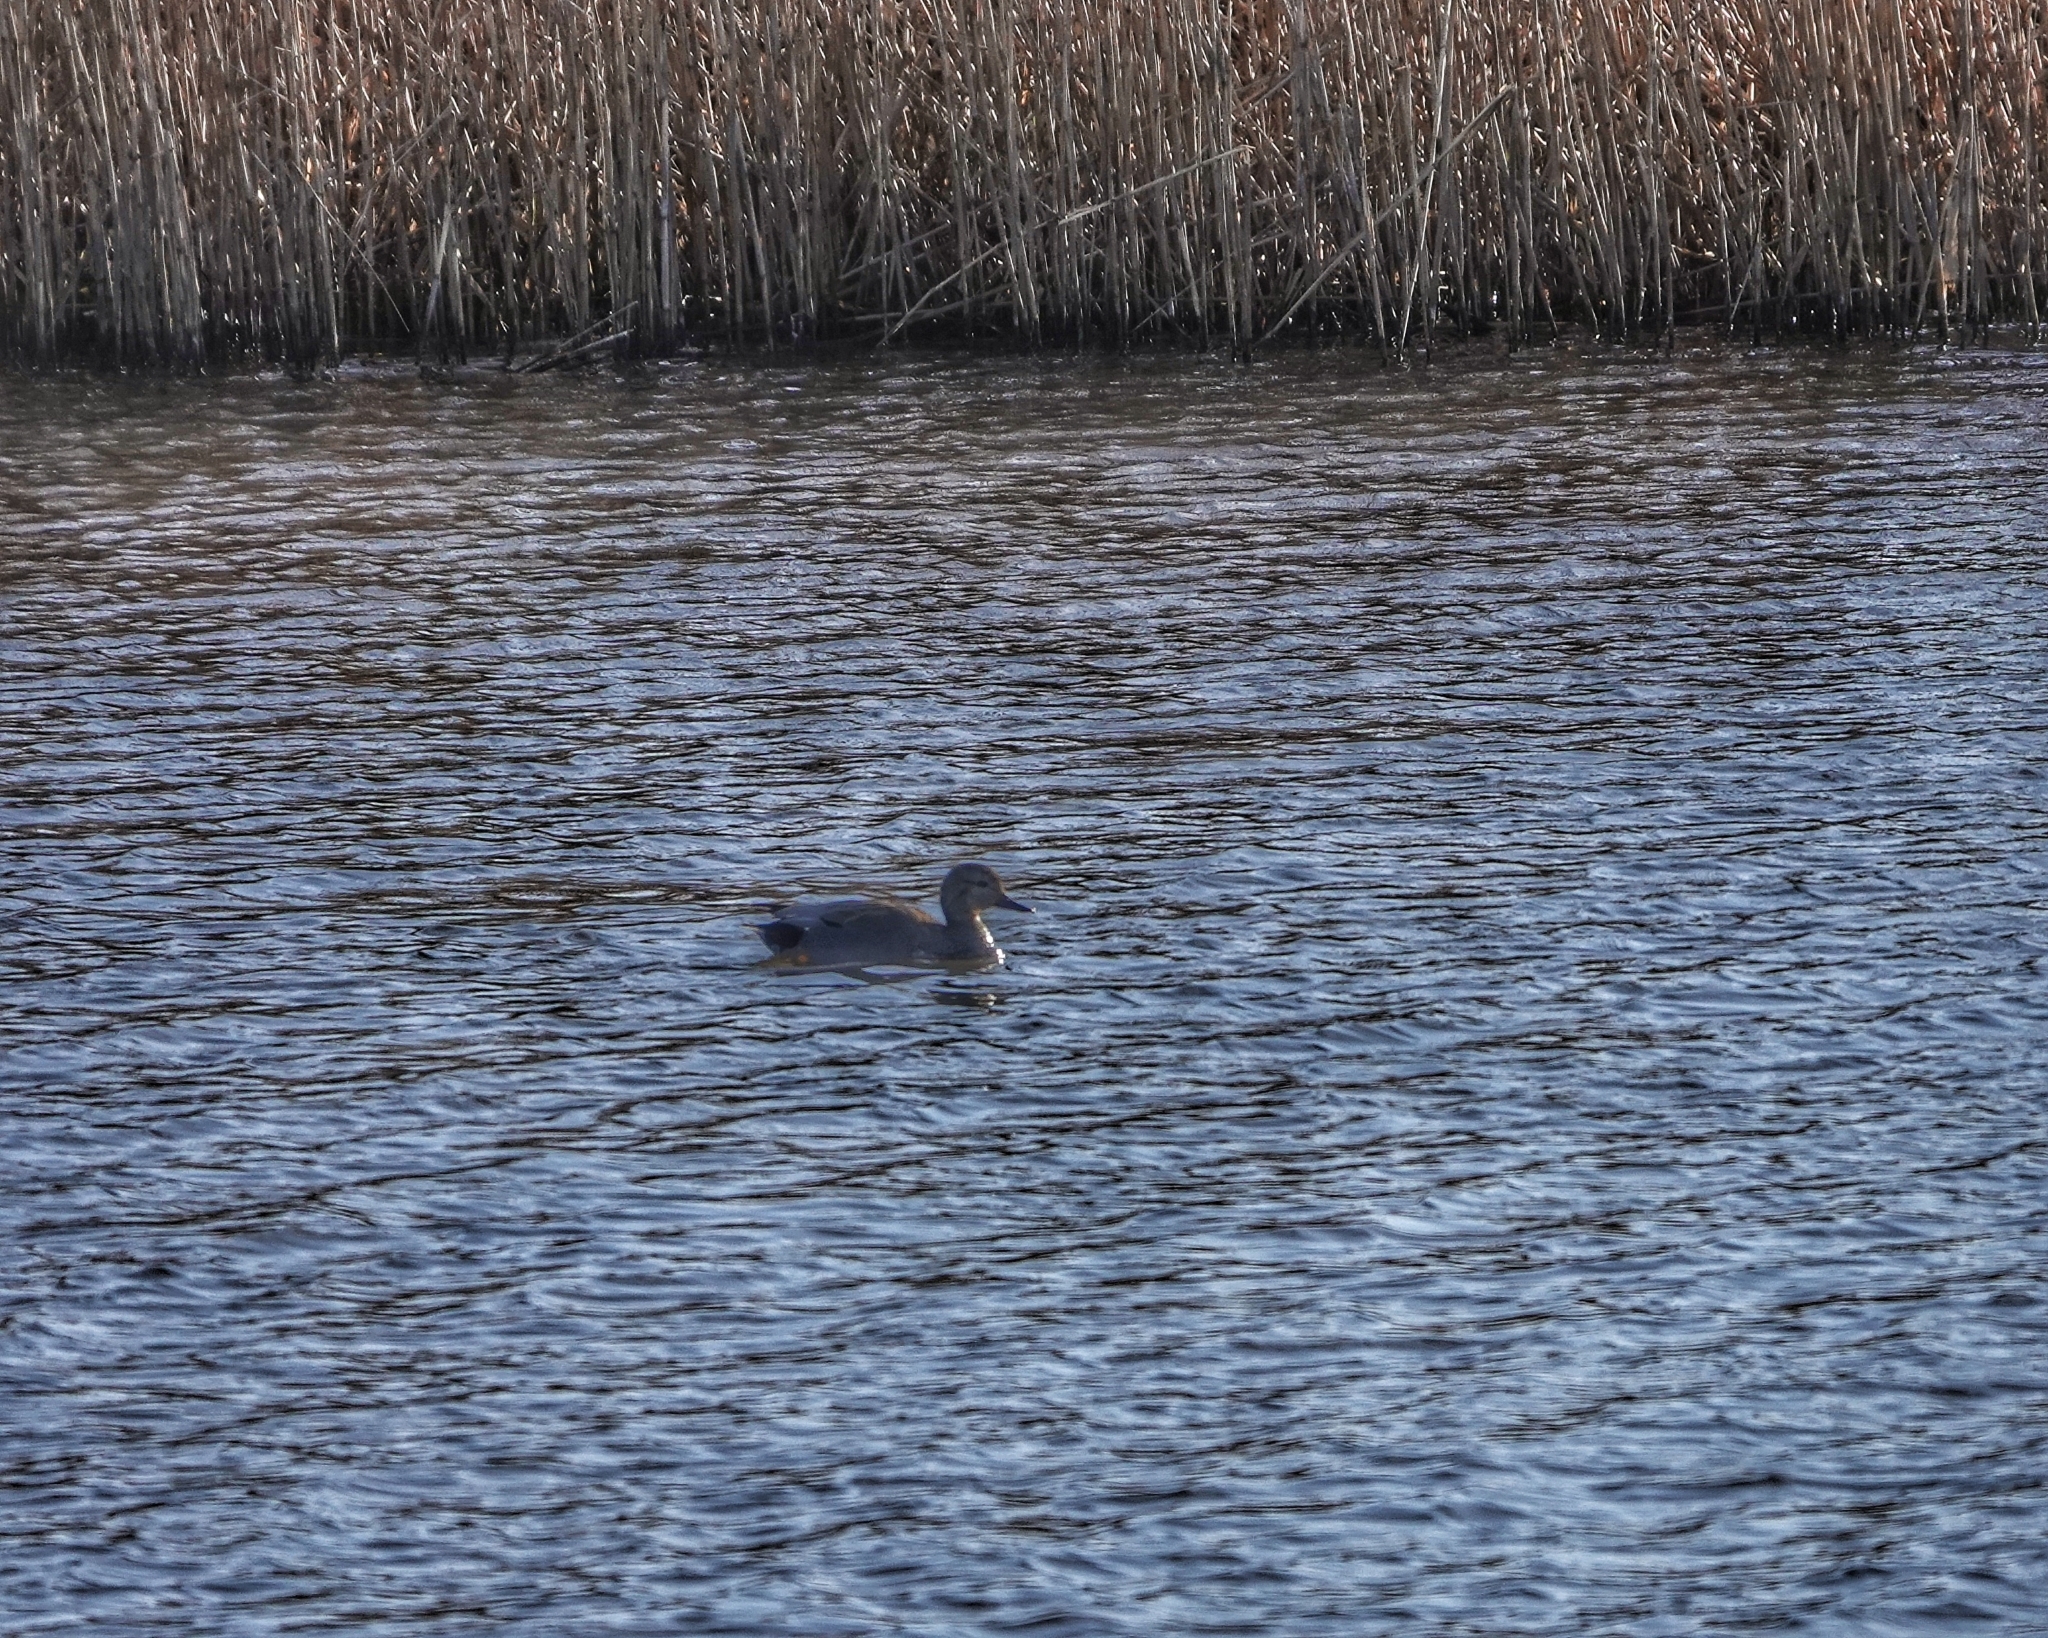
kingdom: Animalia
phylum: Chordata
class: Aves
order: Anseriformes
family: Anatidae
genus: Mareca
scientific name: Mareca strepera
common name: Gadwall
